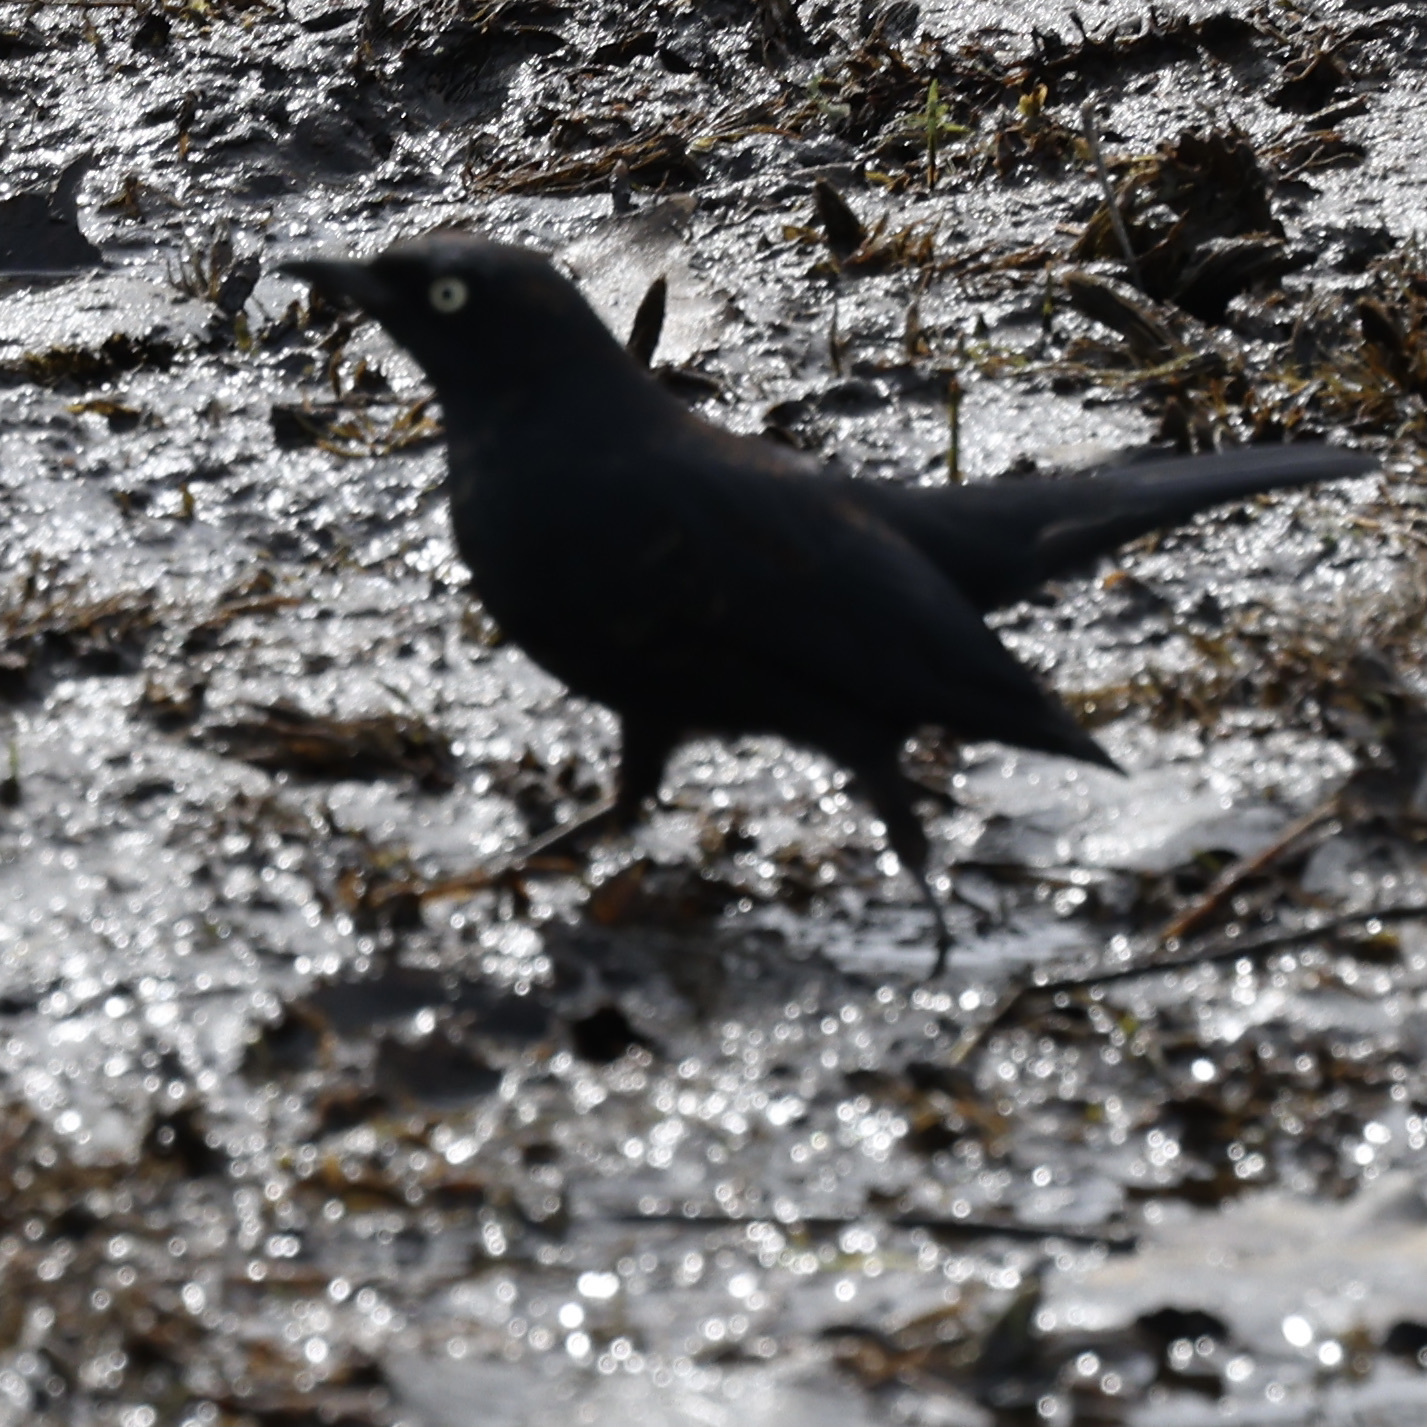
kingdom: Animalia
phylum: Chordata
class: Aves
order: Passeriformes
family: Icteridae
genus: Euphagus
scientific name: Euphagus carolinus
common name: Rusty blackbird
